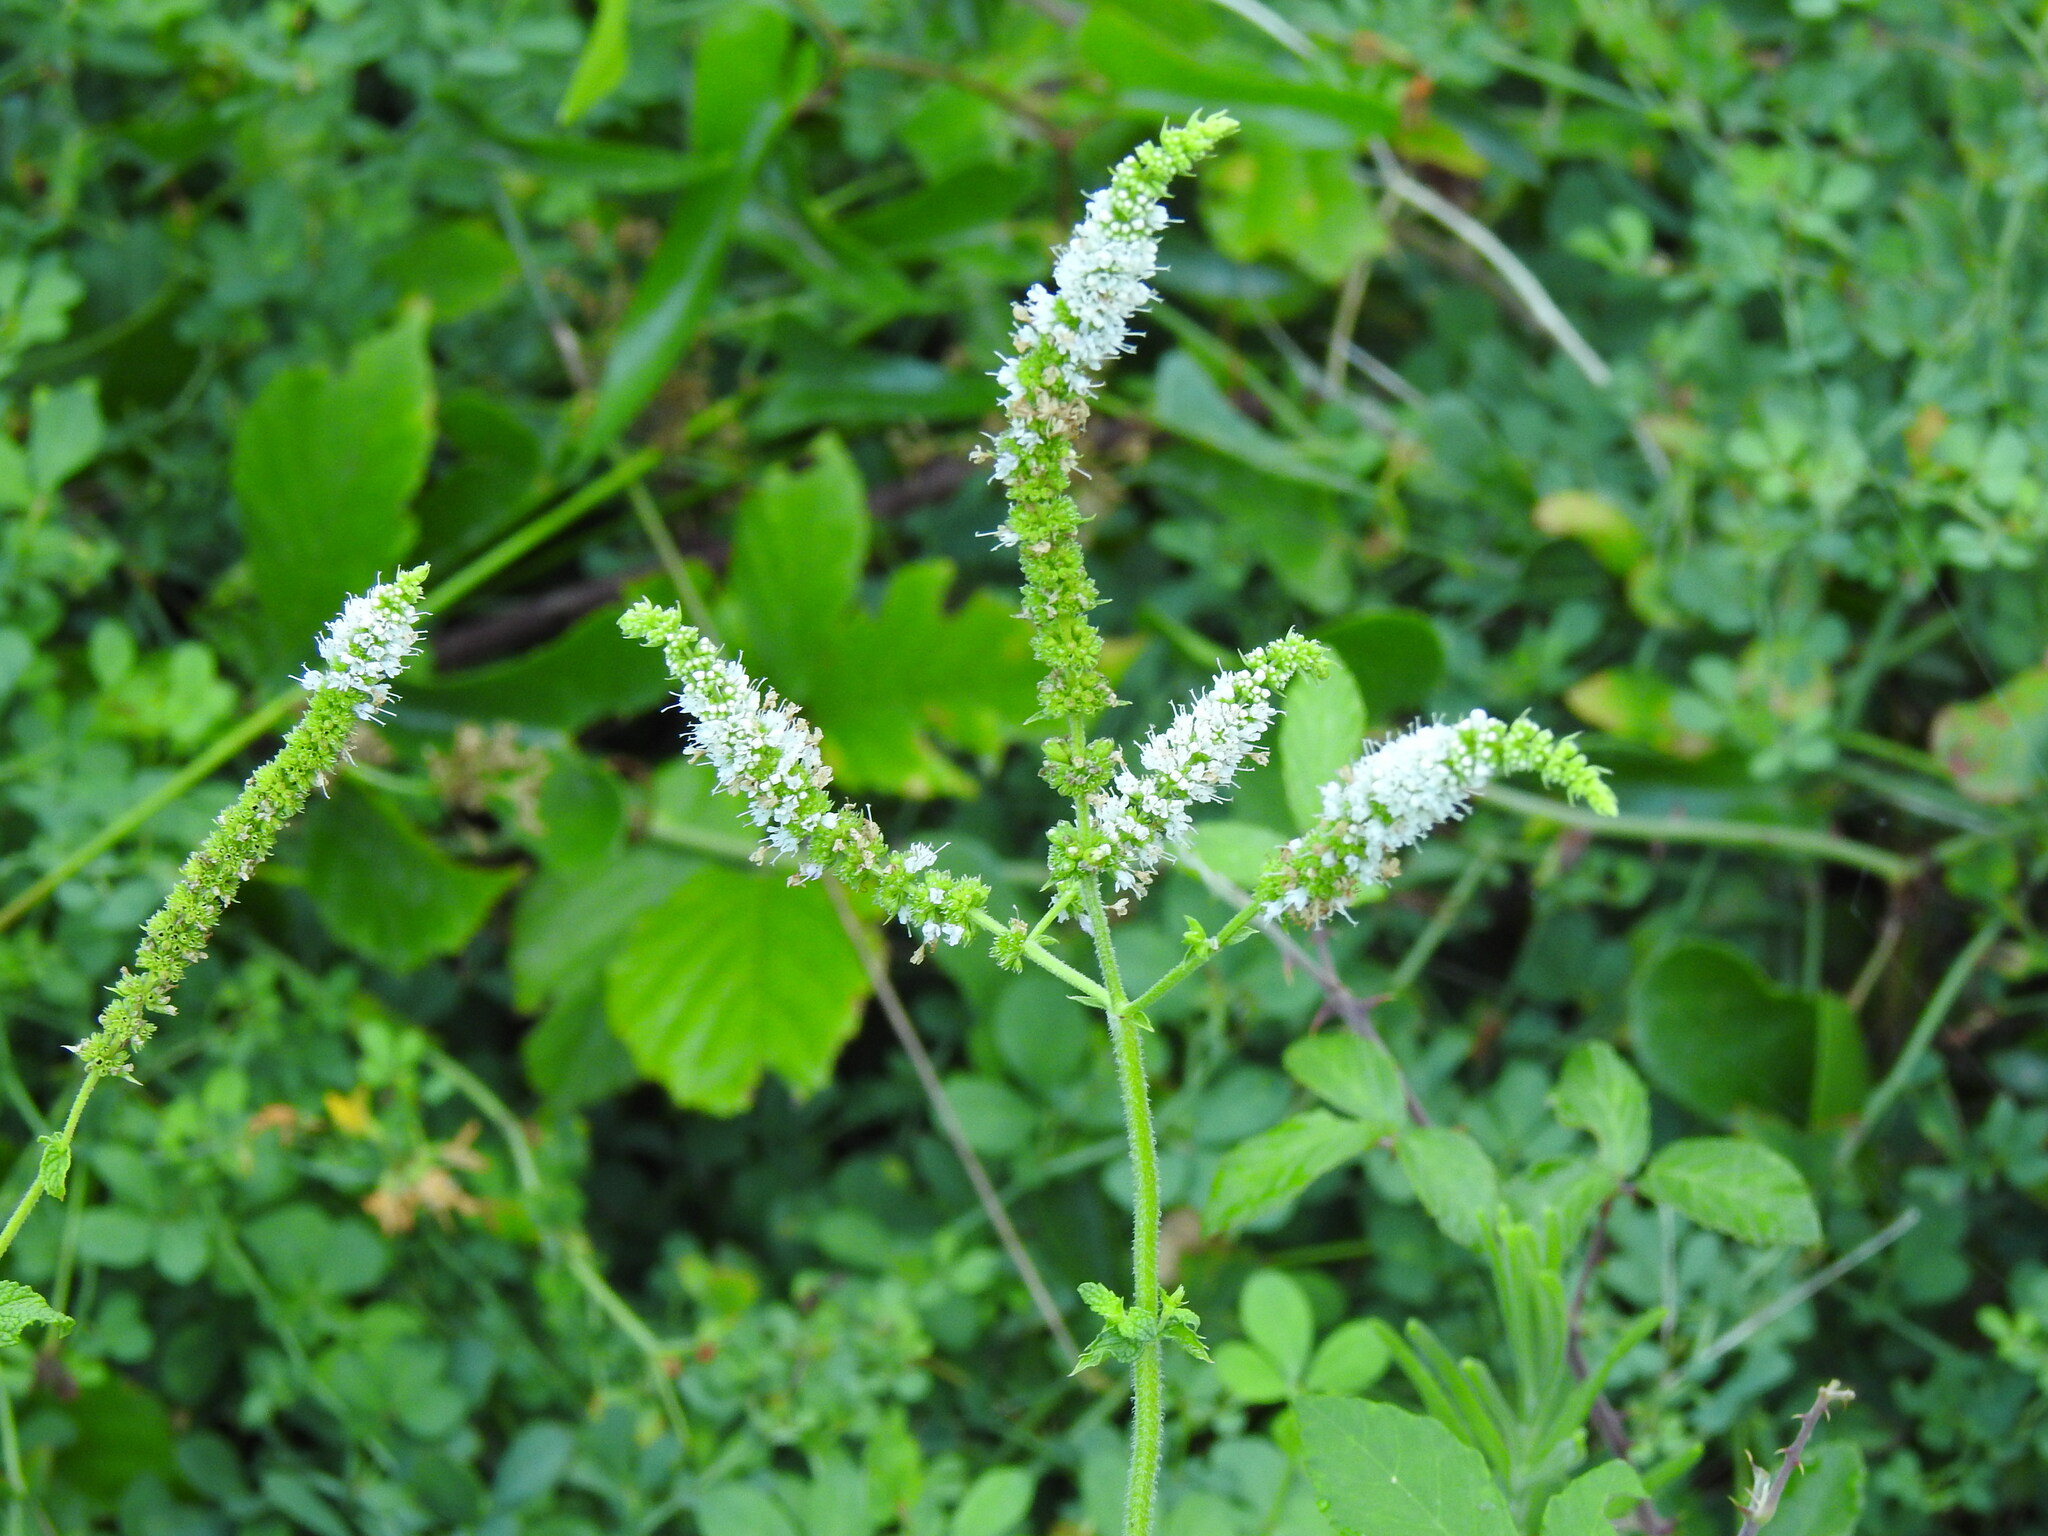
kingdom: Plantae
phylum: Tracheophyta
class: Magnoliopsida
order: Lamiales
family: Lamiaceae
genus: Mentha
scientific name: Mentha suaveolens
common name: Apple mint
